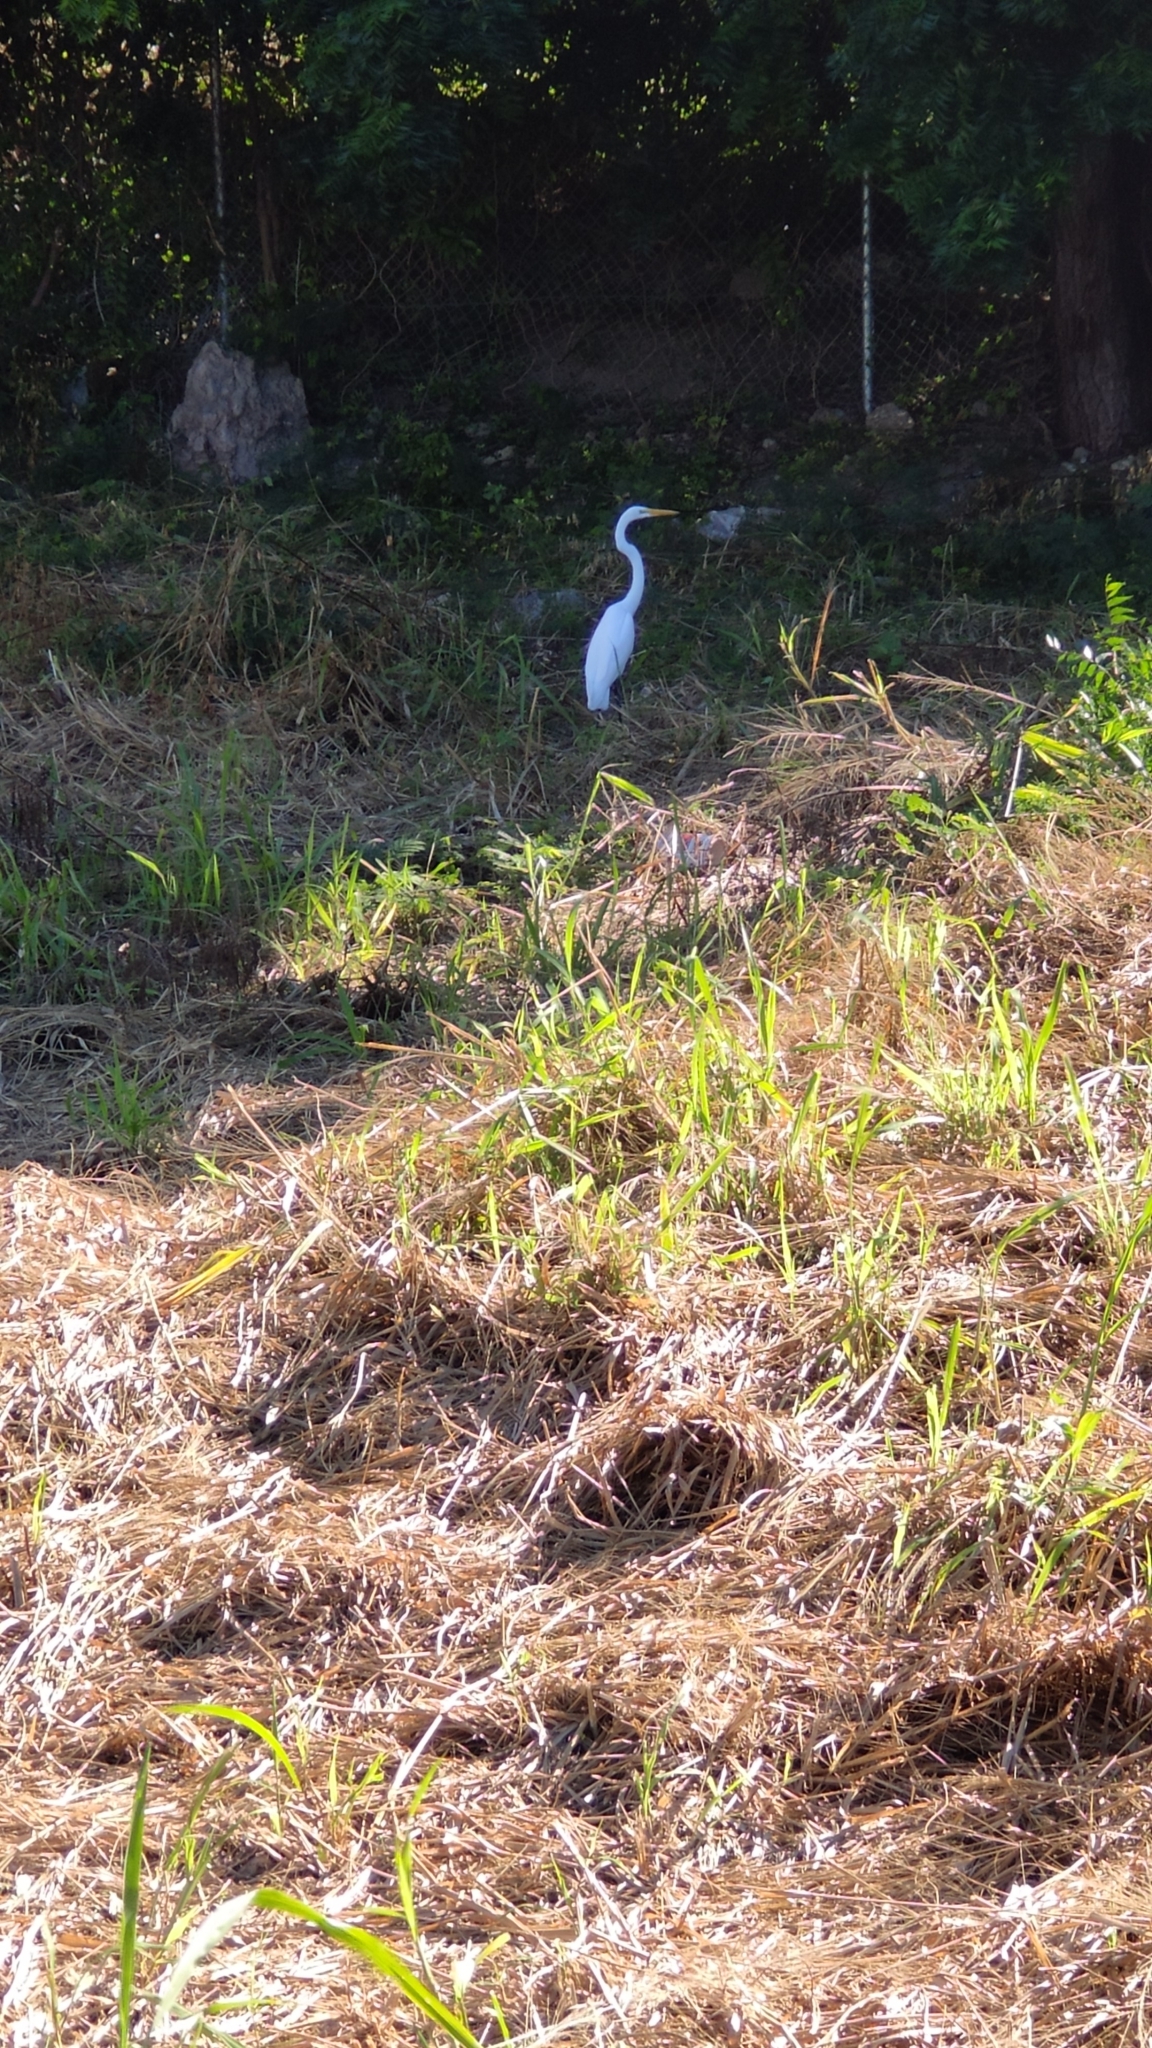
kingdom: Animalia
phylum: Chordata
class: Aves
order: Pelecaniformes
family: Ardeidae
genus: Ardea
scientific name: Ardea alba
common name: Great egret
